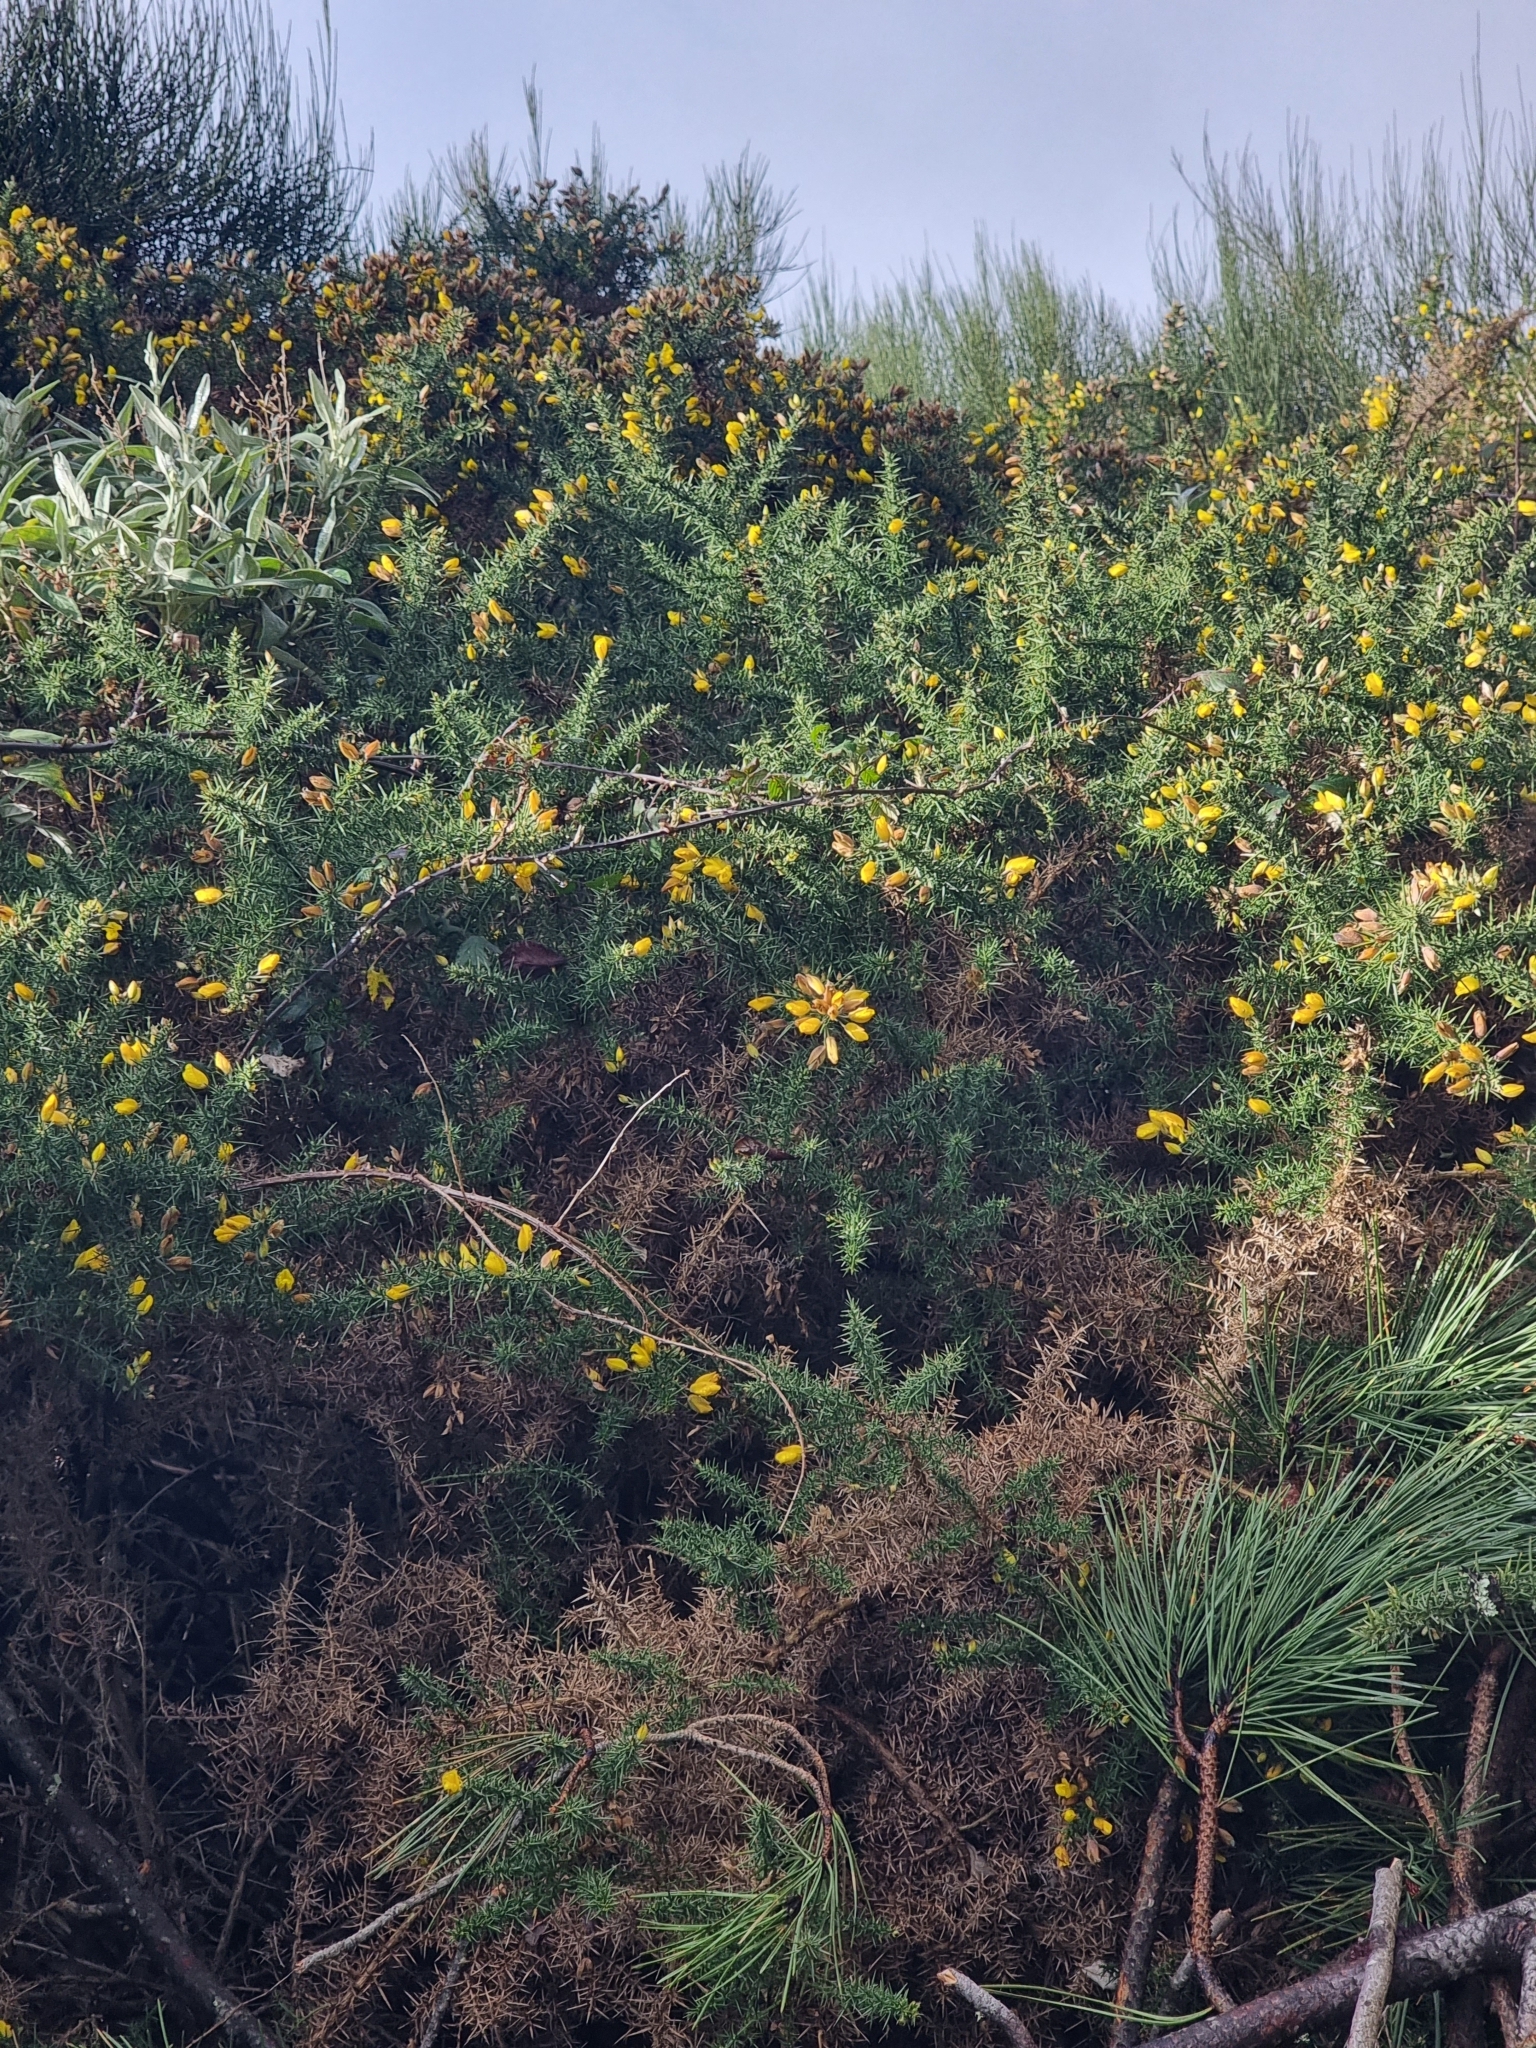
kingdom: Plantae
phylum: Tracheophyta
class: Magnoliopsida
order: Fabales
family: Fabaceae
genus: Ulex
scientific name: Ulex europaeus
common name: Common gorse
